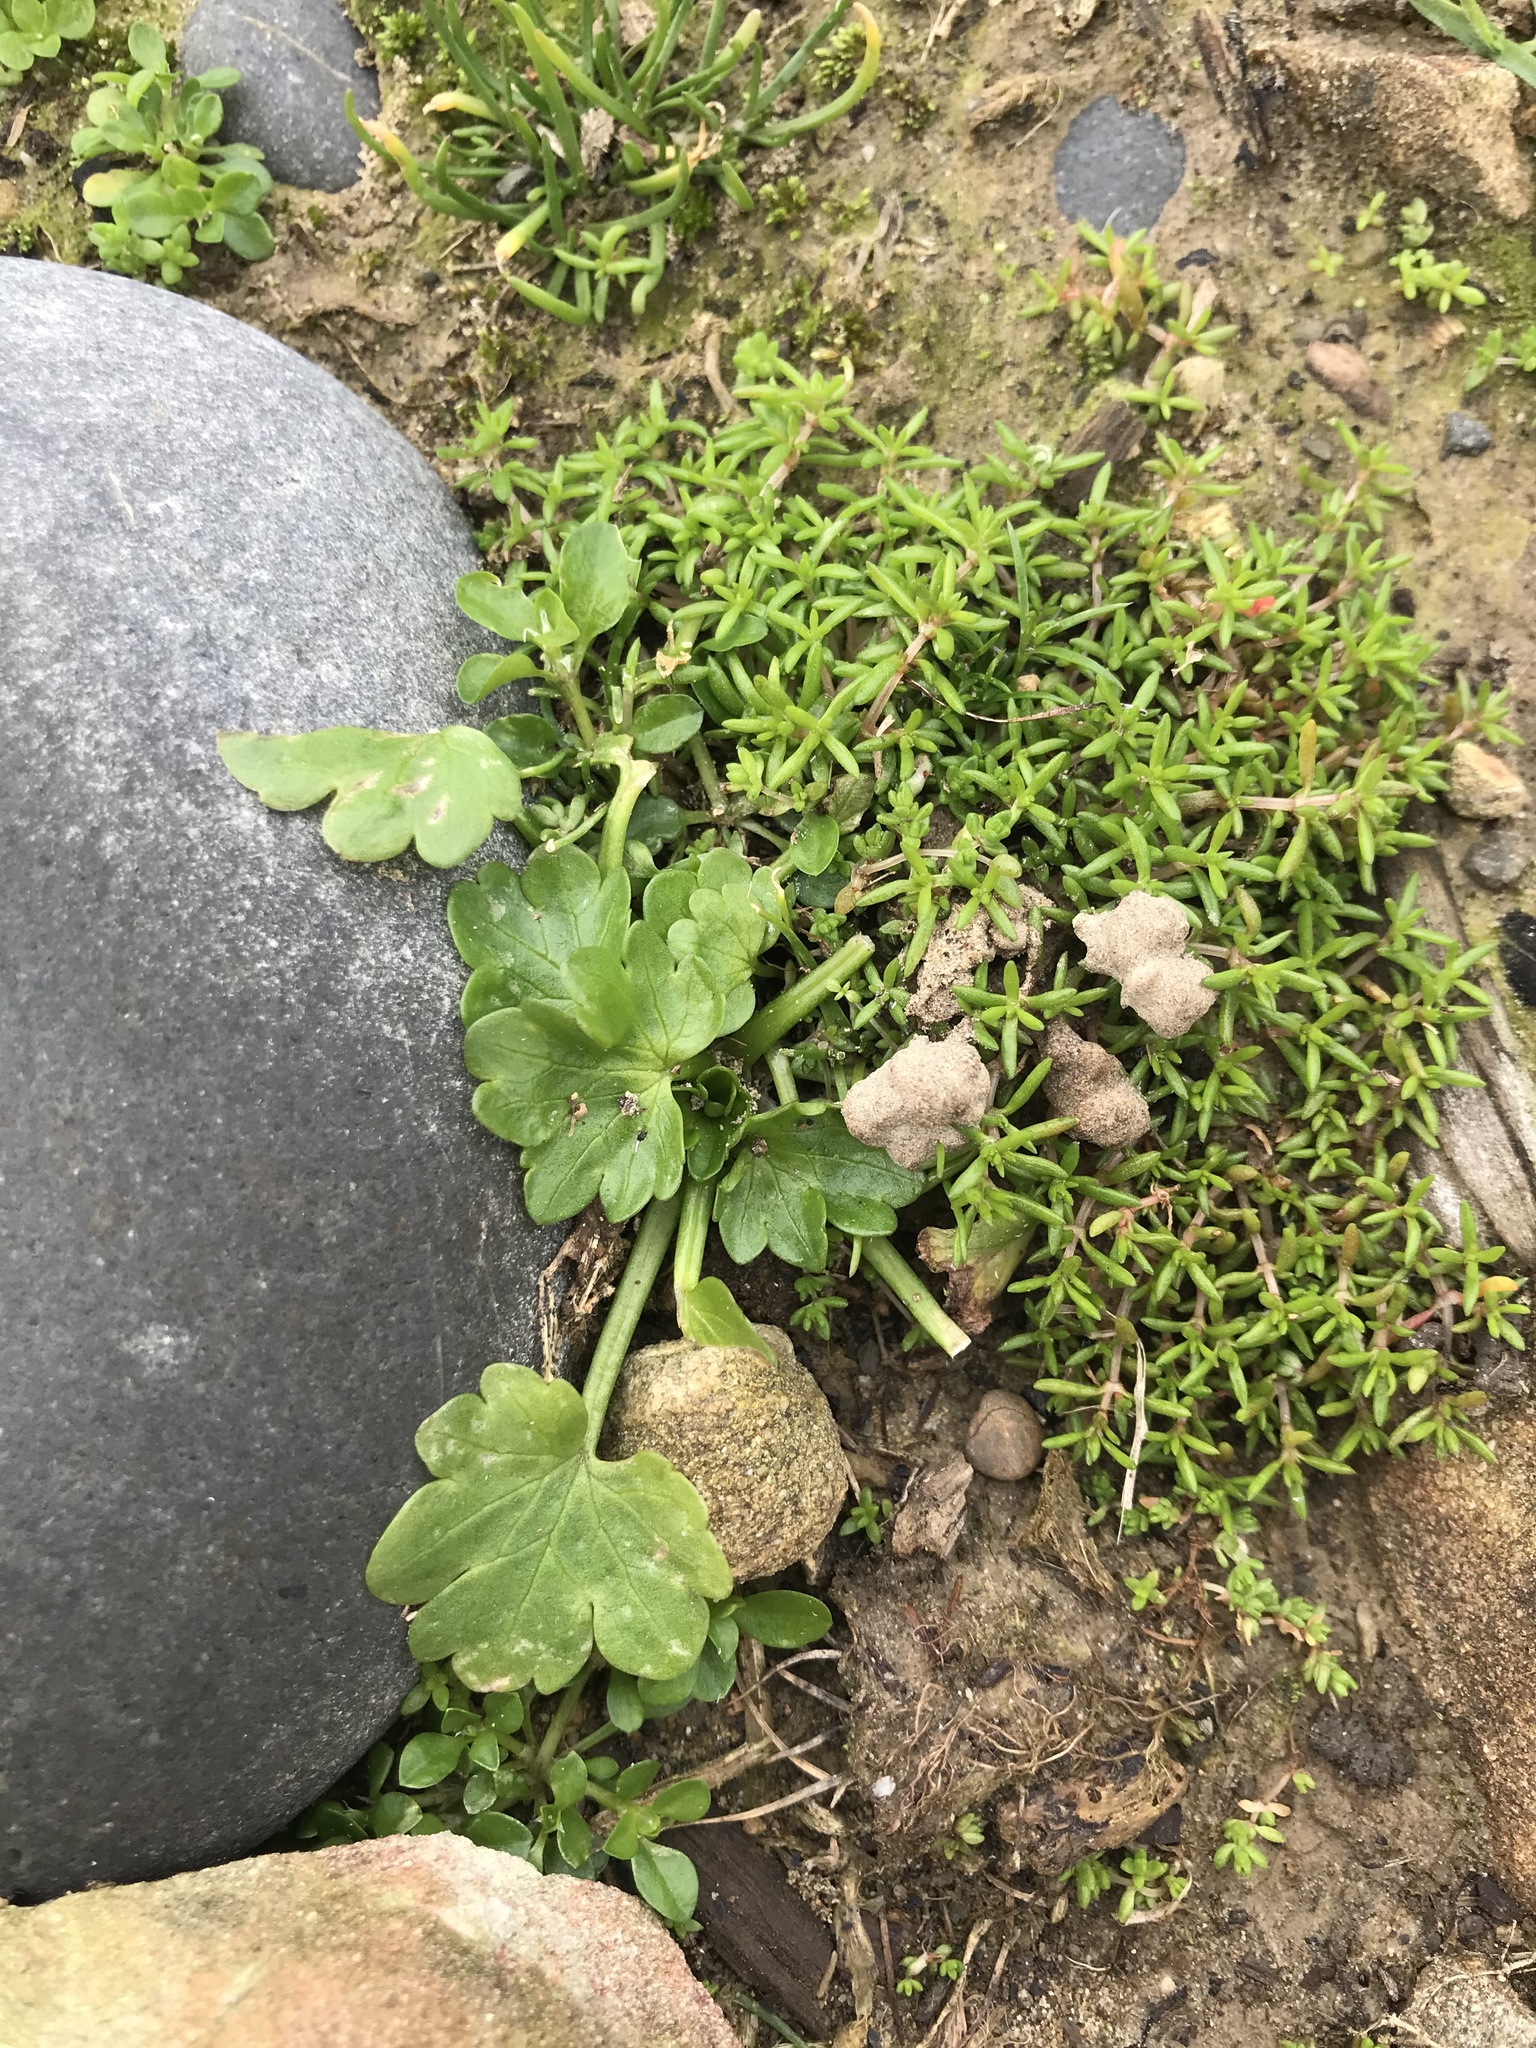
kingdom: Plantae
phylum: Tracheophyta
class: Magnoliopsida
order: Ranunculales
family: Ranunculaceae
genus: Ranunculus
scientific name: Ranunculus sceleratus
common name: Celery-leaved buttercup
